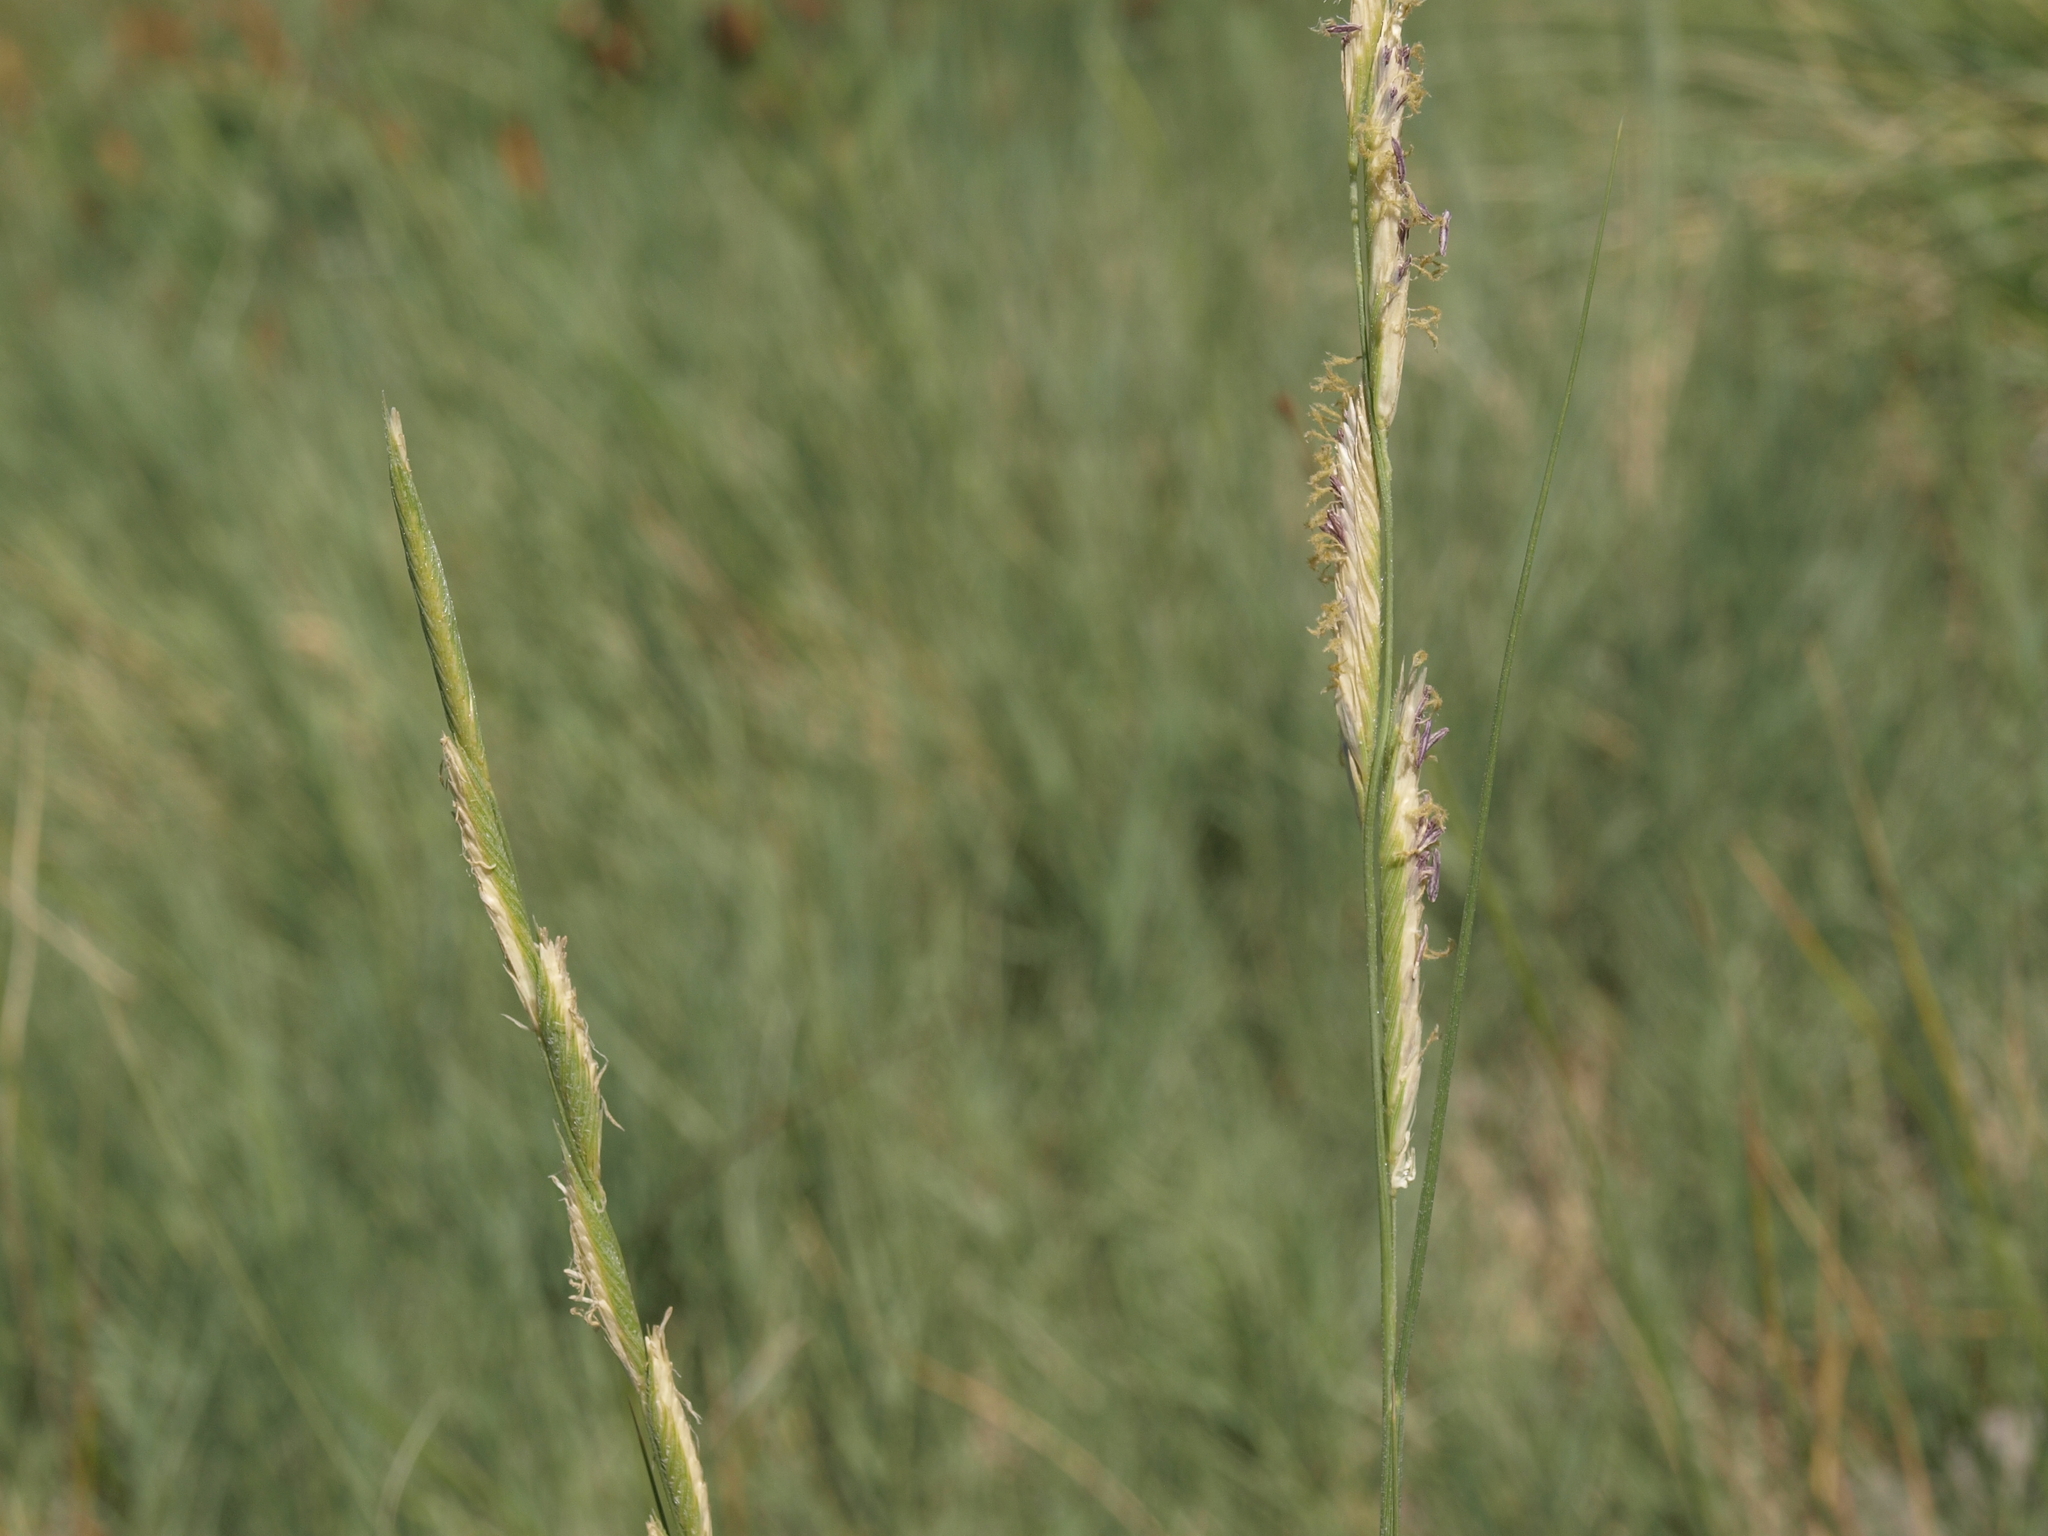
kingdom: Plantae
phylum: Tracheophyta
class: Liliopsida
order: Poales
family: Poaceae
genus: Sporobolus
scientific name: Sporobolus hookerianus
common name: Alkali cordgrass
